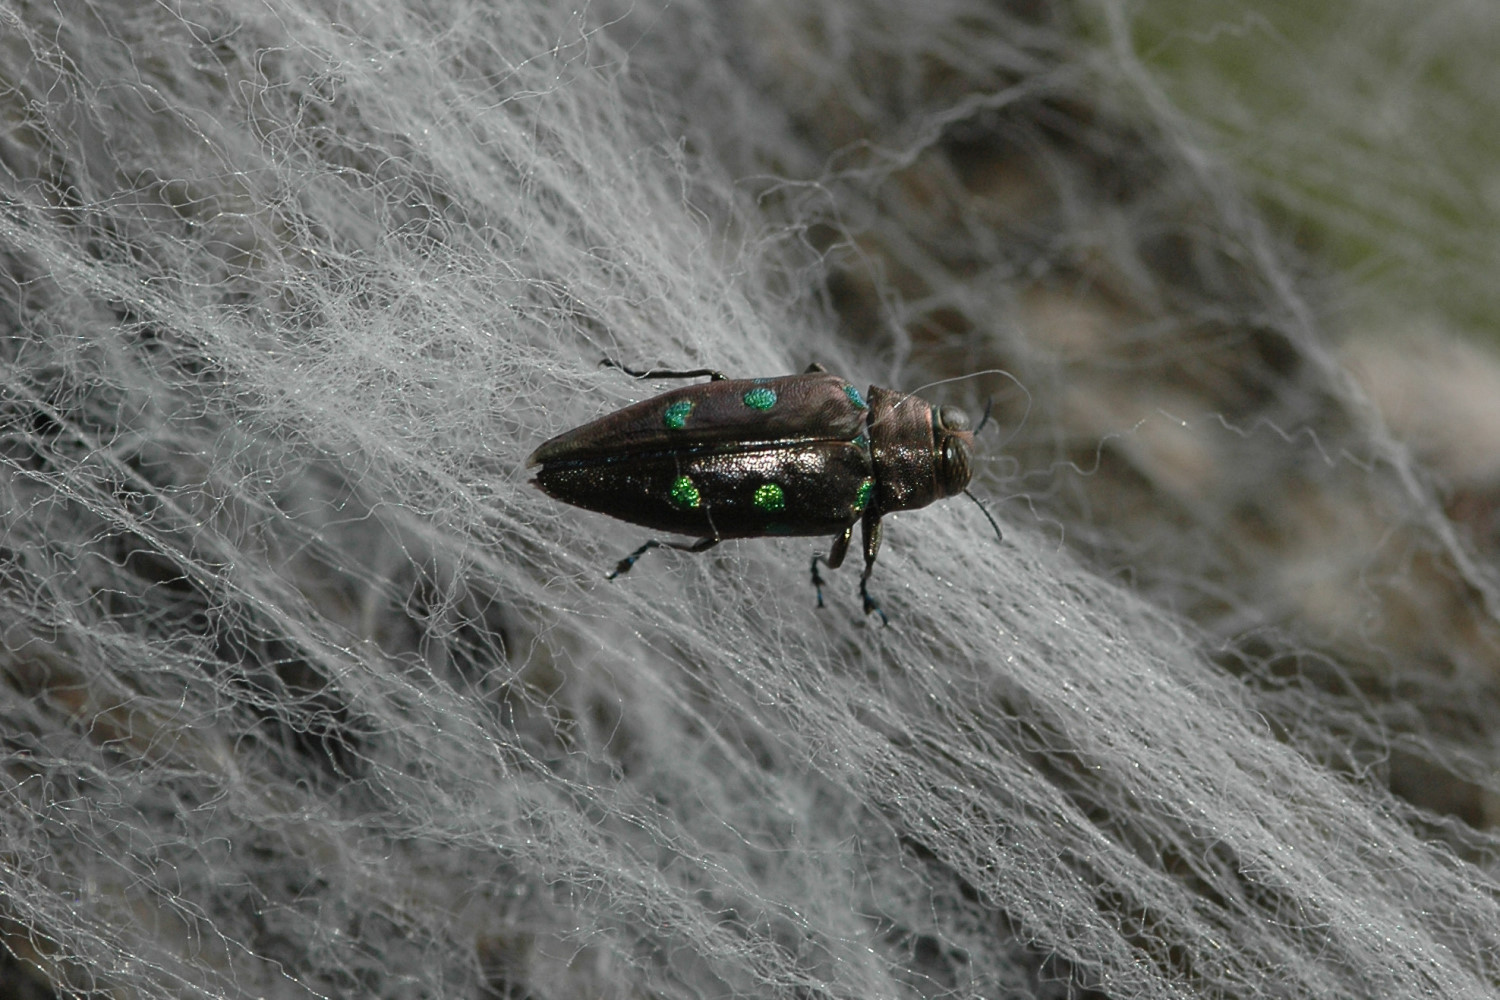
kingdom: Animalia
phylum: Arthropoda
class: Insecta
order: Coleoptera
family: Buprestidae
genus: Actenodes
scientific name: Actenodes bellulus
